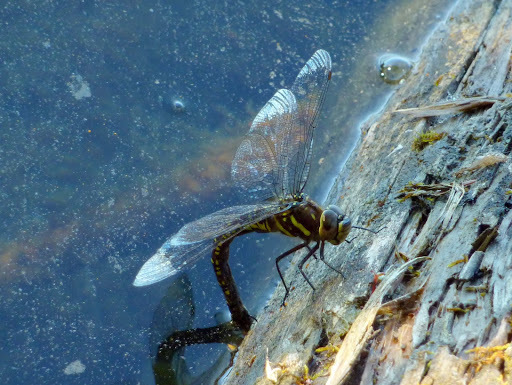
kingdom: Animalia
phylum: Arthropoda
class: Insecta
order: Odonata
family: Aeshnidae
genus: Aeshna
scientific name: Aeshna palmata
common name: Paddle-tailed darner
